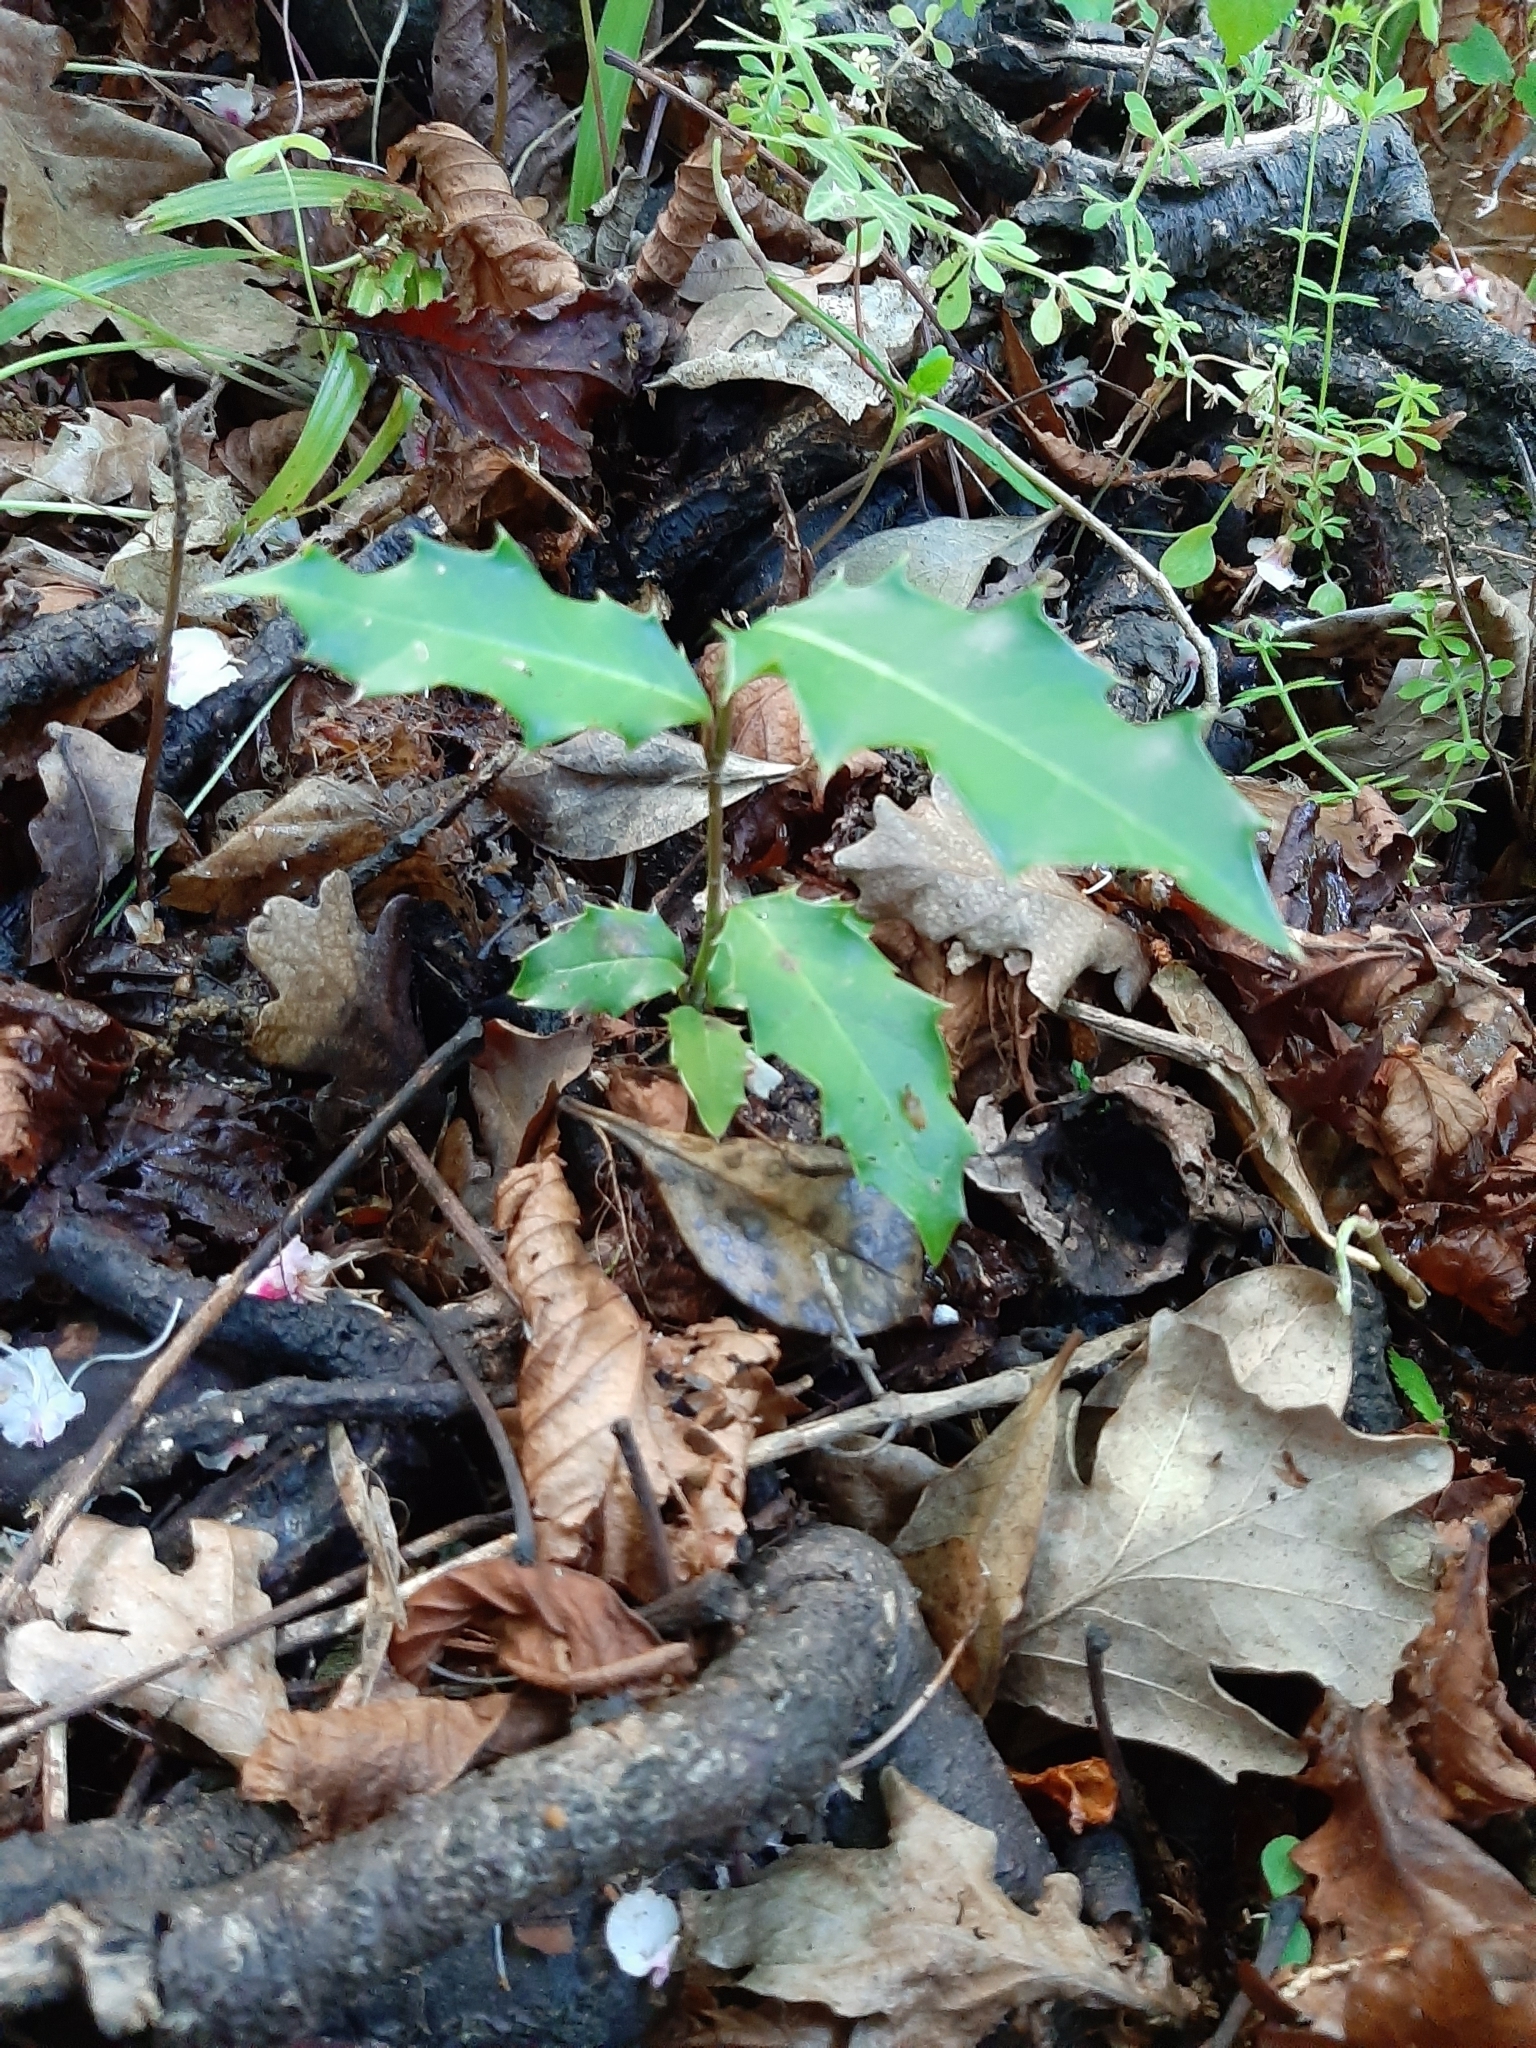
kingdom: Plantae
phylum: Tracheophyta
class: Magnoliopsida
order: Aquifoliales
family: Aquifoliaceae
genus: Ilex
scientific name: Ilex aquifolium
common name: English holly
